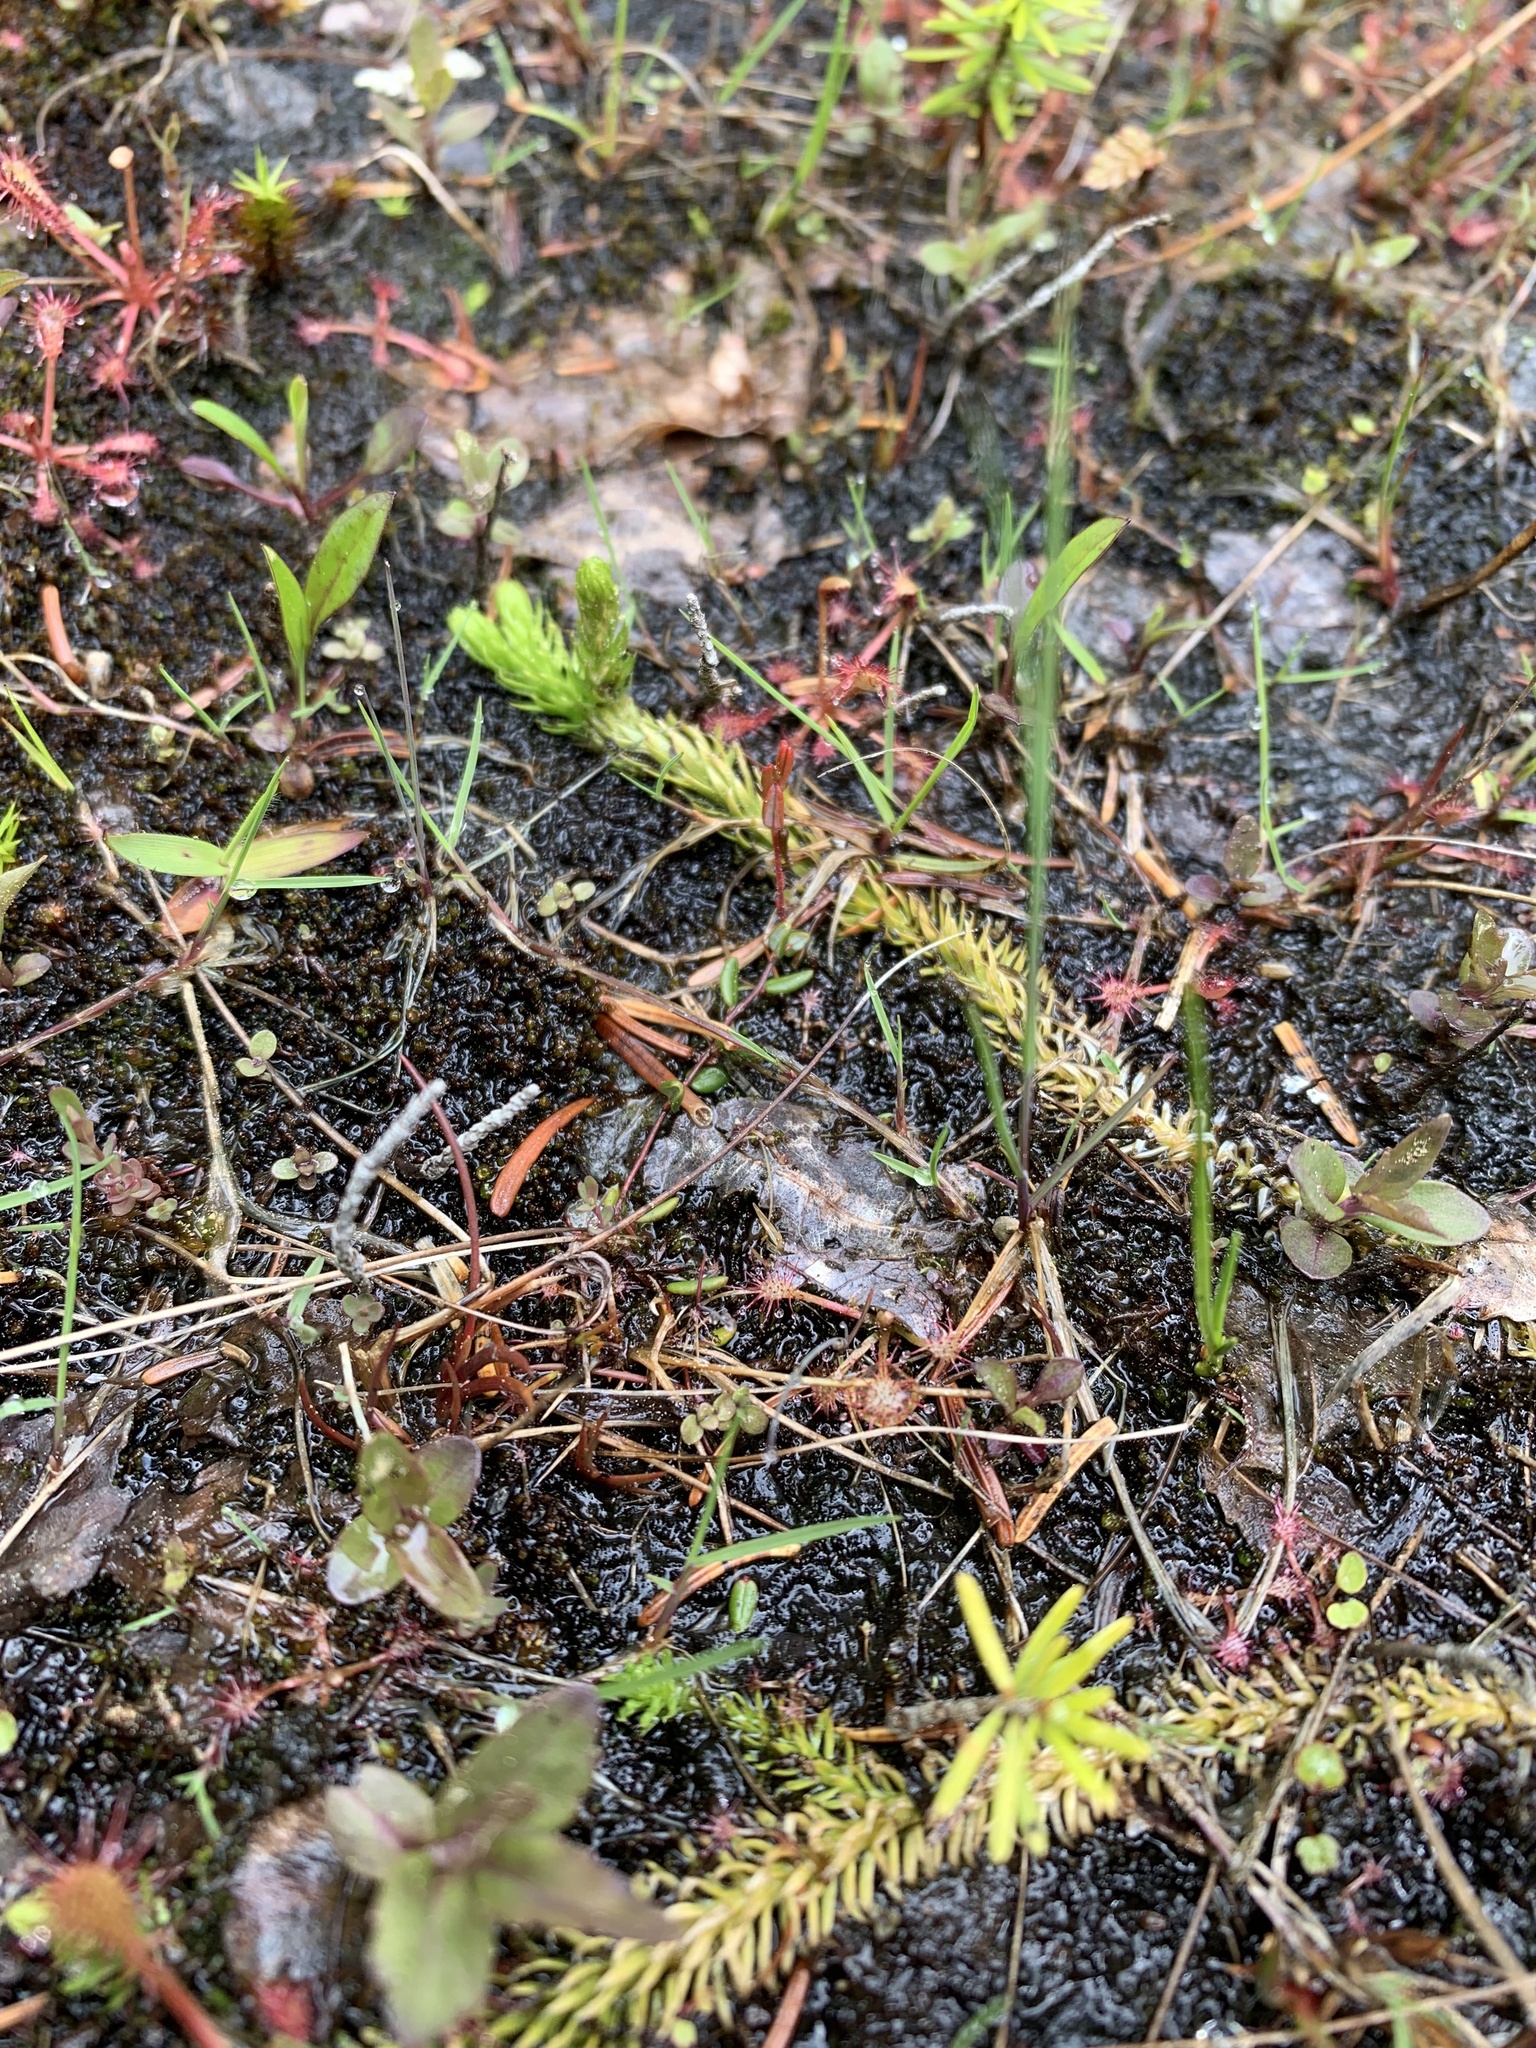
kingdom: Plantae
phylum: Tracheophyta
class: Lycopodiopsida
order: Lycopodiales
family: Lycopodiaceae
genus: Lycopodiella
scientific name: Lycopodiella inundata
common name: Marsh clubmoss
